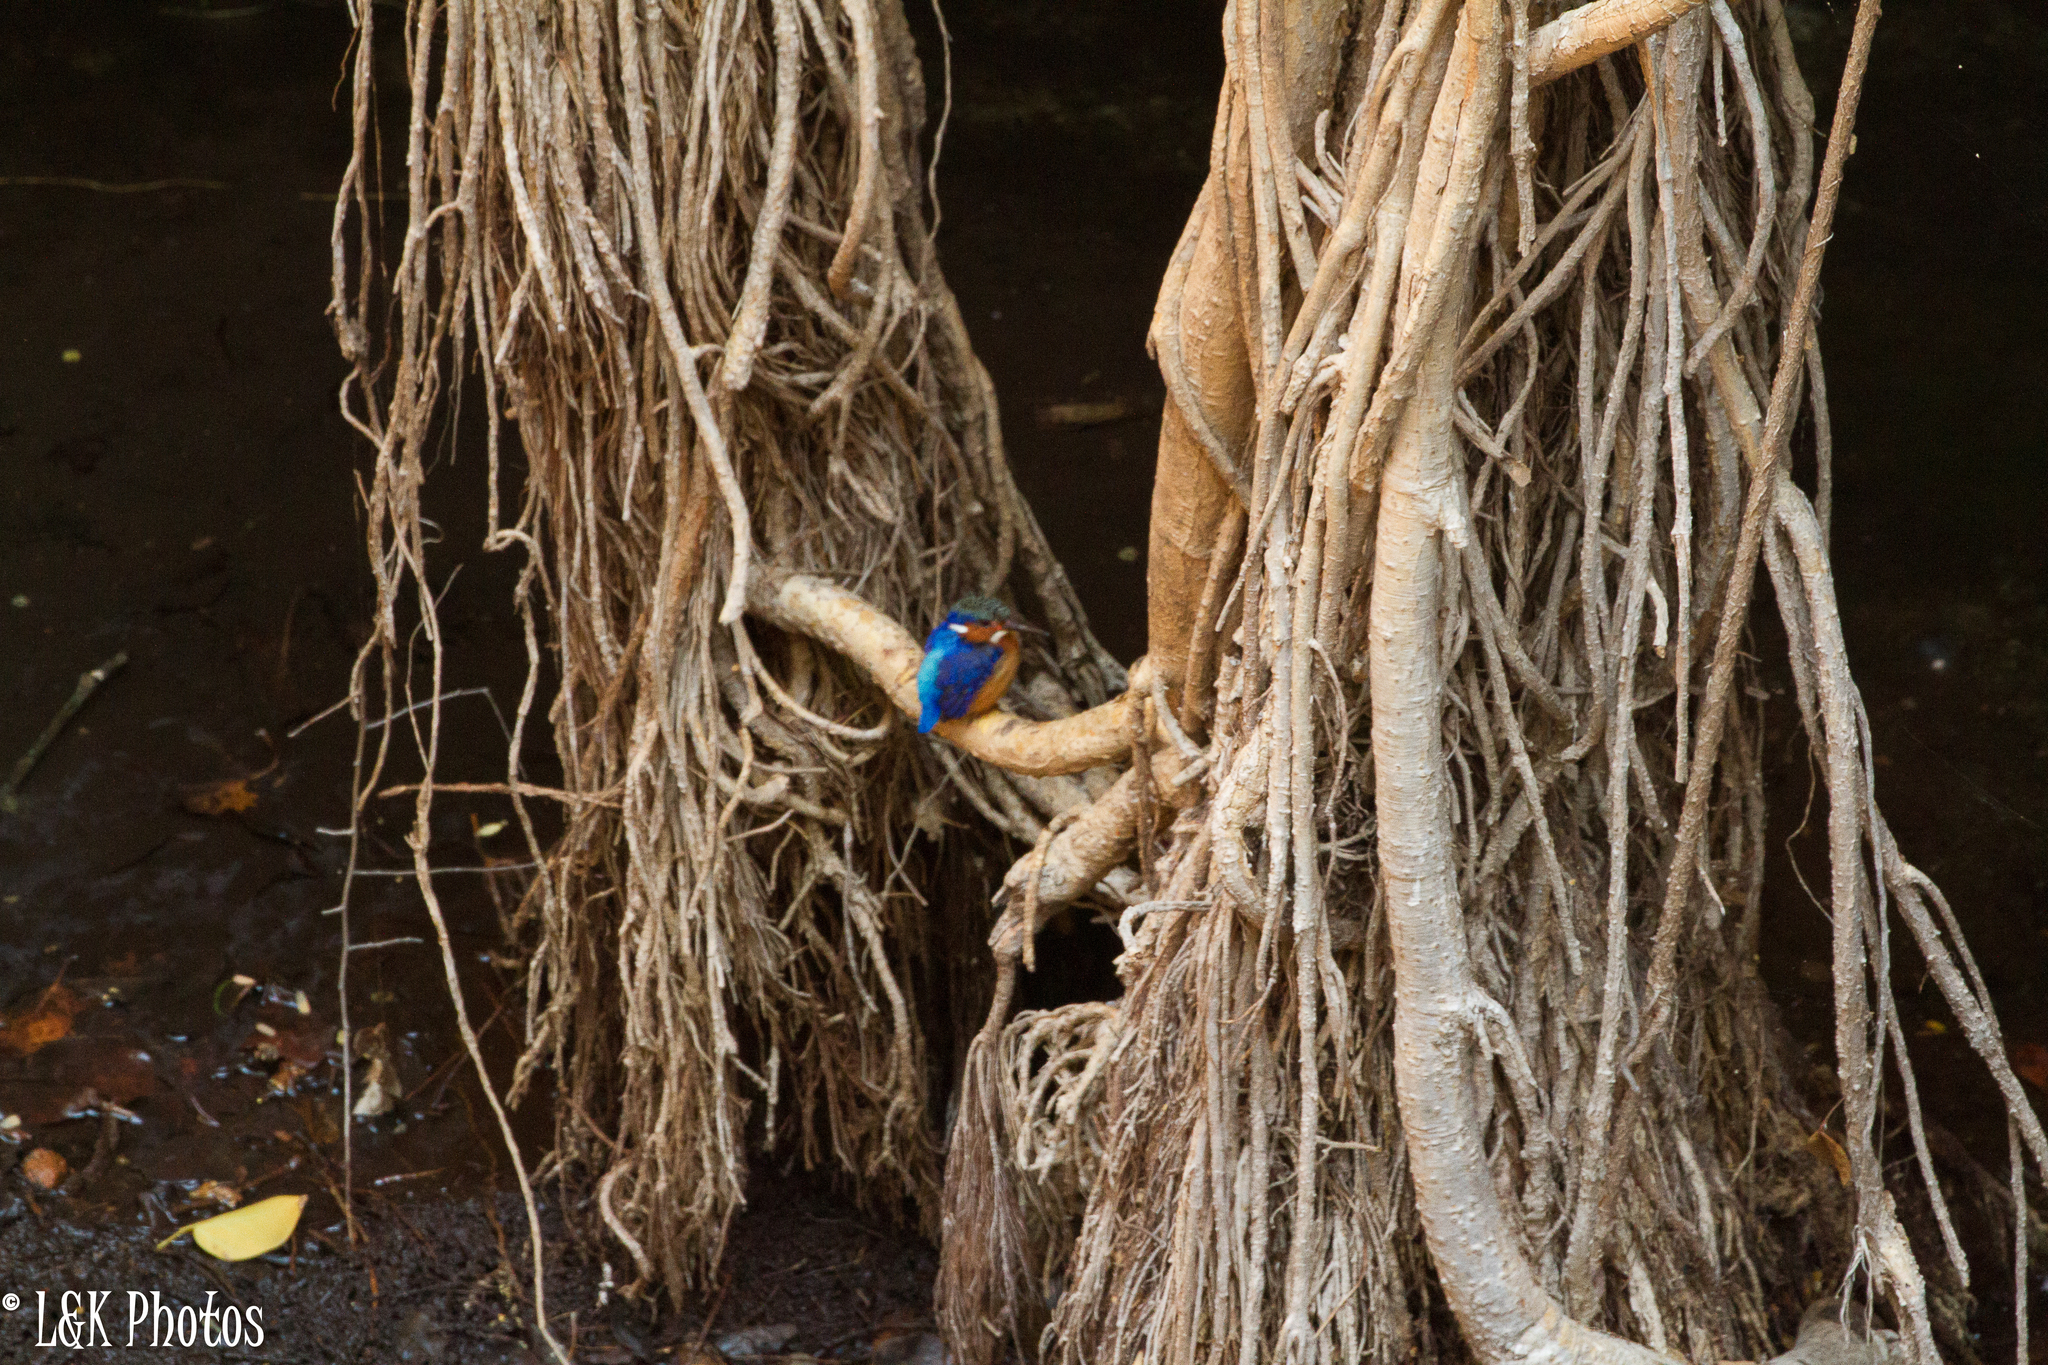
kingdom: Animalia
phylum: Chordata
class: Aves
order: Coraciiformes
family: Alcedinidae
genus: Corythornis
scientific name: Corythornis vintsioides
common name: Malagasy kingfisher
